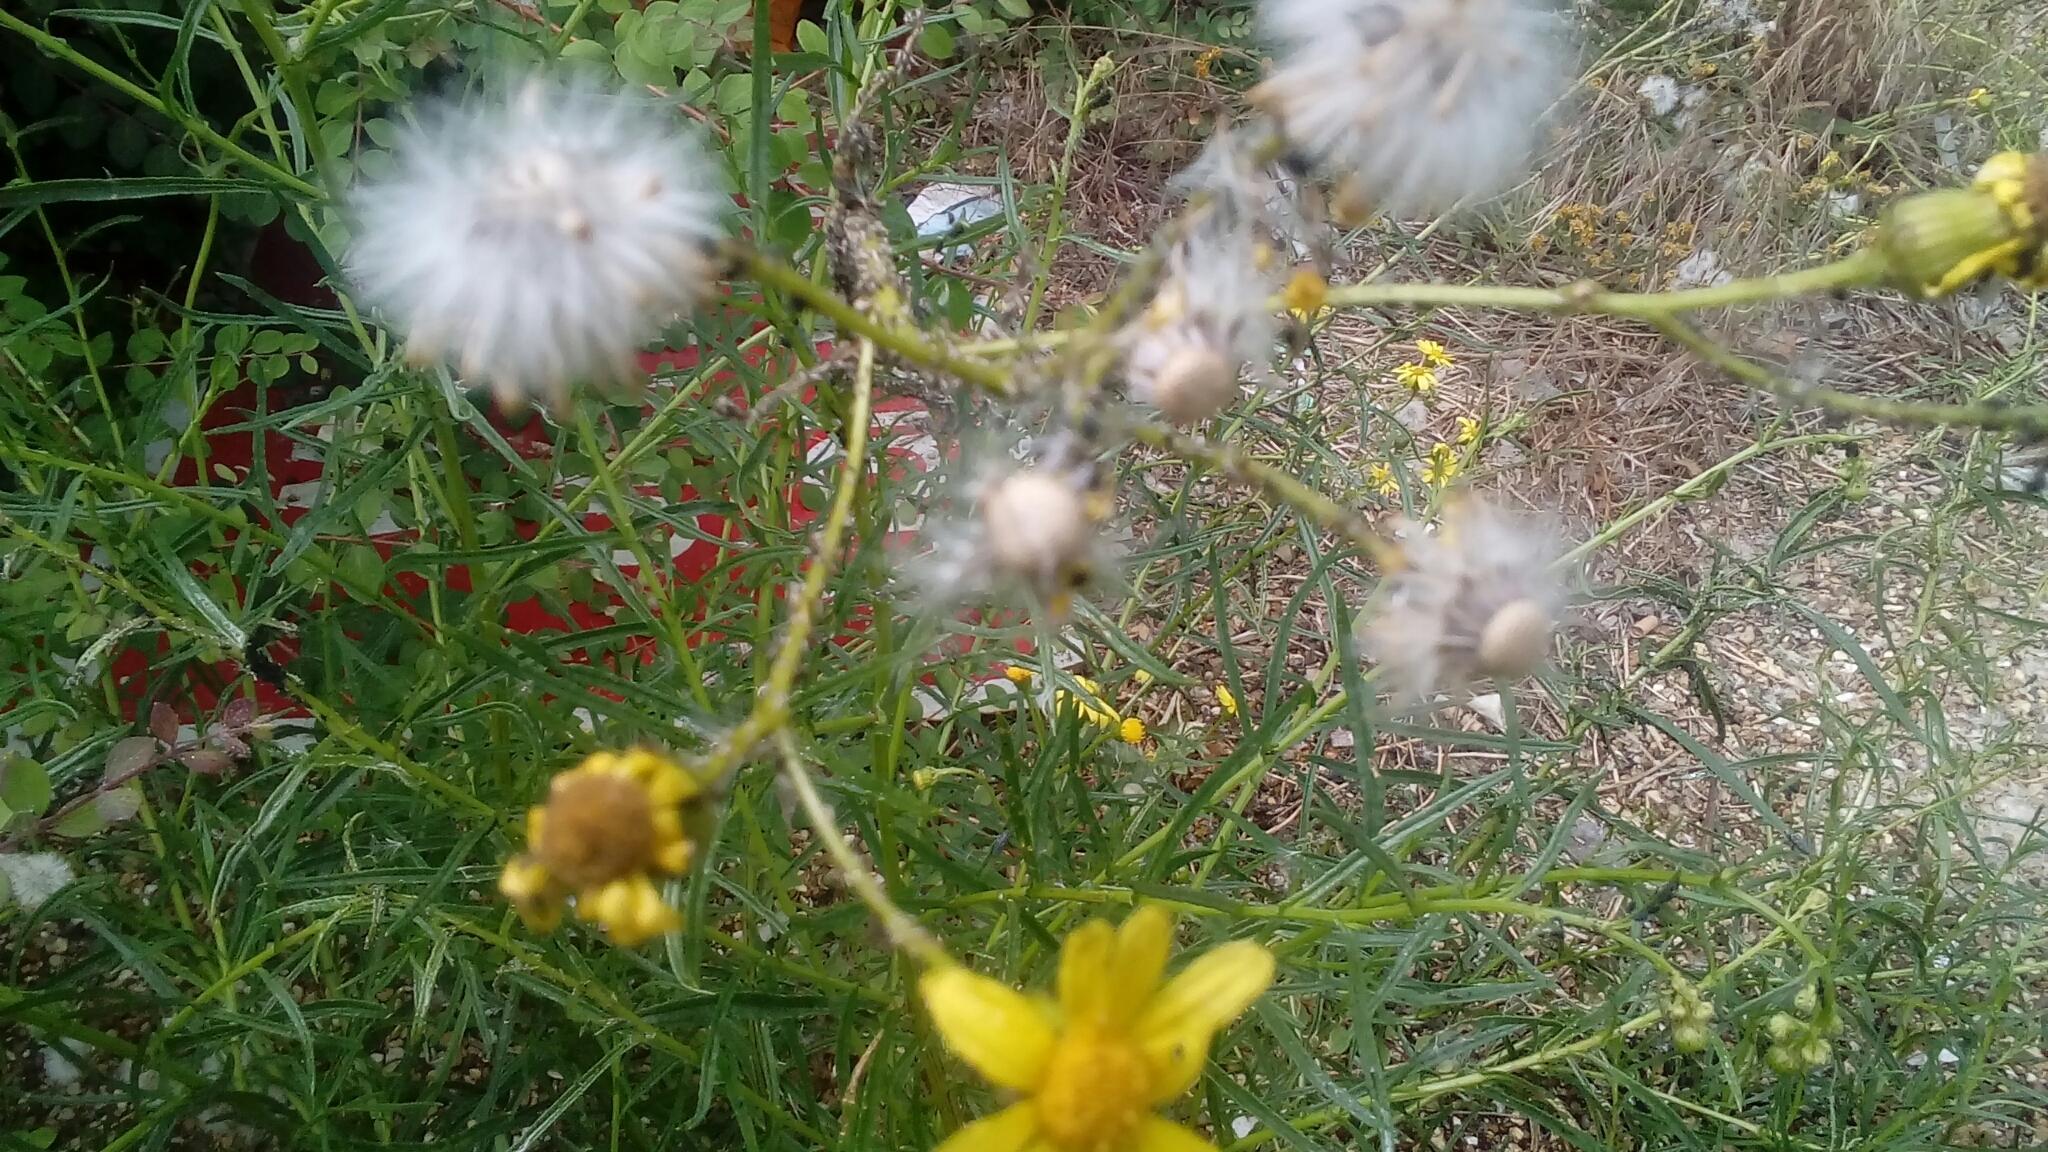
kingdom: Plantae
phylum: Tracheophyta
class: Magnoliopsida
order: Asterales
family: Asteraceae
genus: Senecio
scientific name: Senecio inaequidens
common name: Narrow-leaved ragwort
